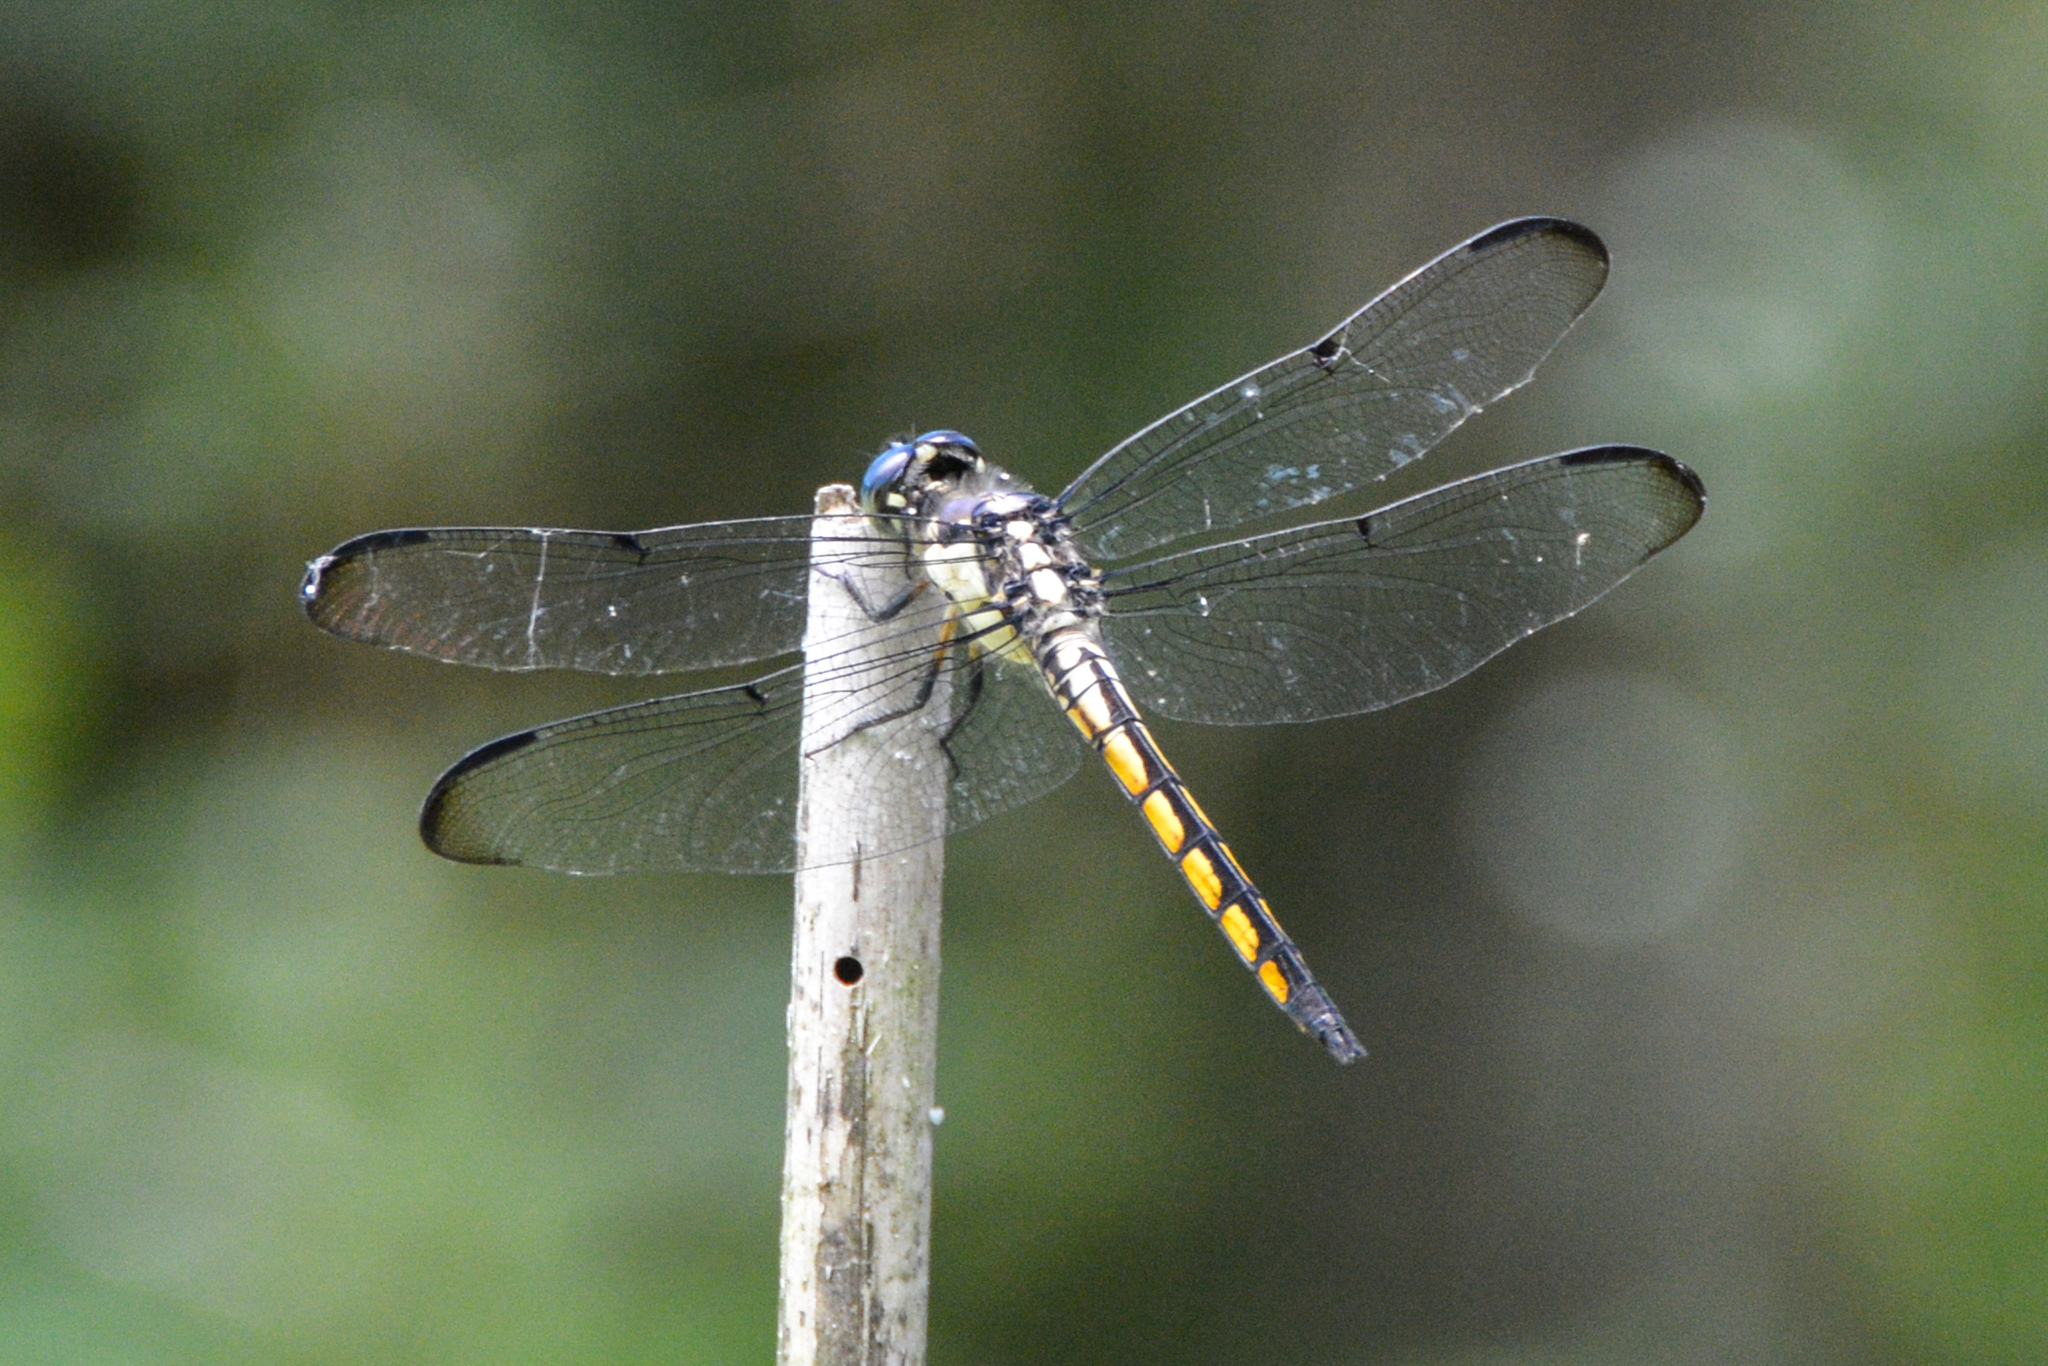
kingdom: Animalia
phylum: Arthropoda
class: Insecta
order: Odonata
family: Libellulidae
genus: Libellula
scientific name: Libellula vibrans
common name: Great blue skimmer
